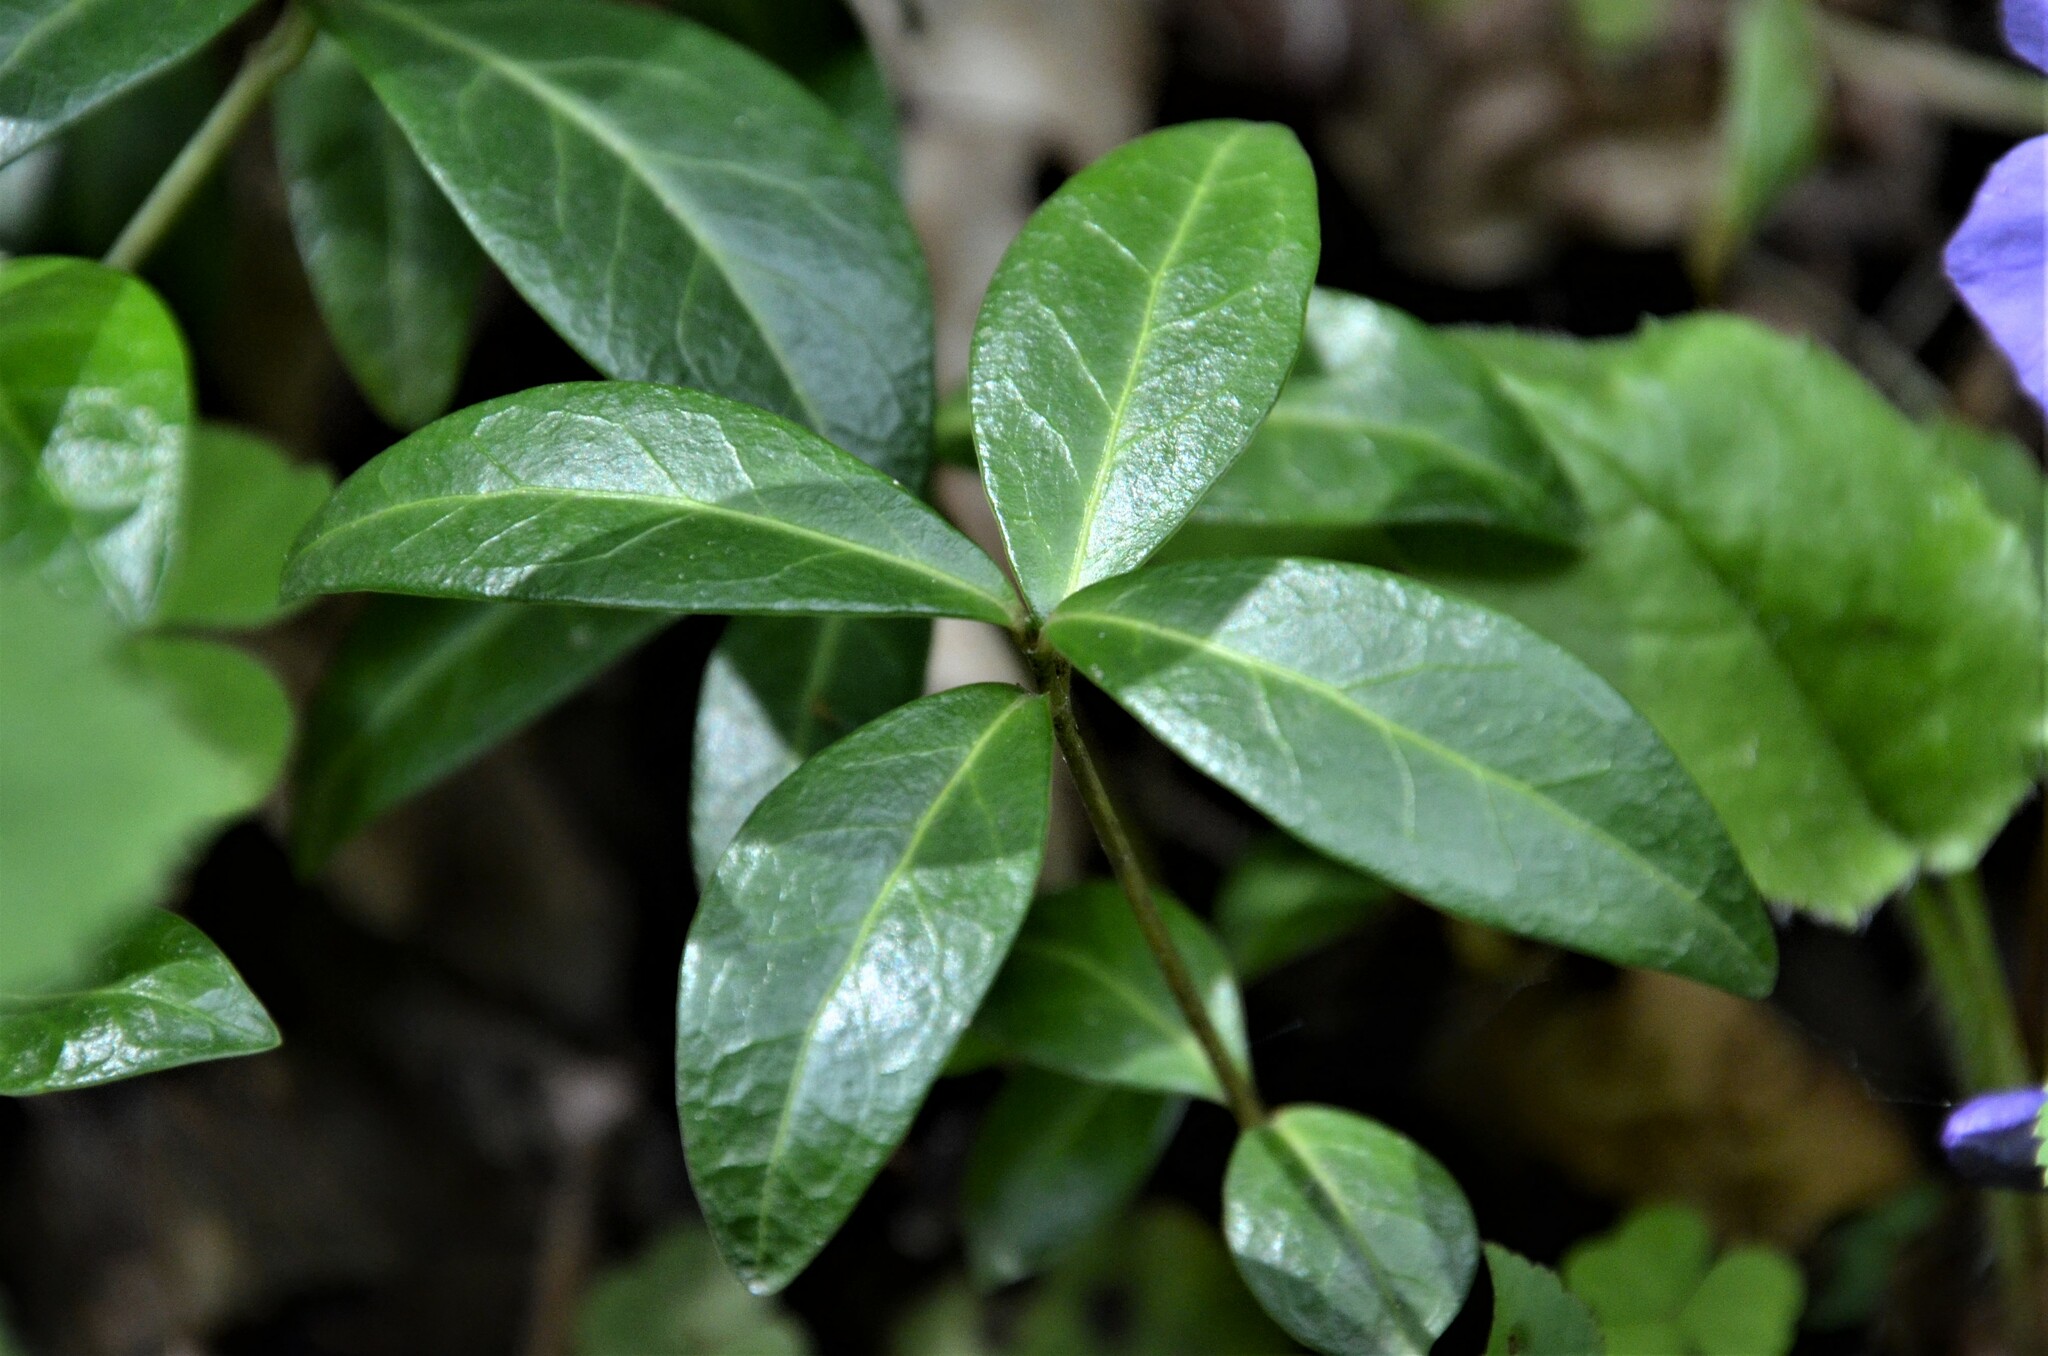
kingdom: Plantae
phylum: Tracheophyta
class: Magnoliopsida
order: Gentianales
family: Apocynaceae
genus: Vinca
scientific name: Vinca minor
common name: Lesser periwinkle
